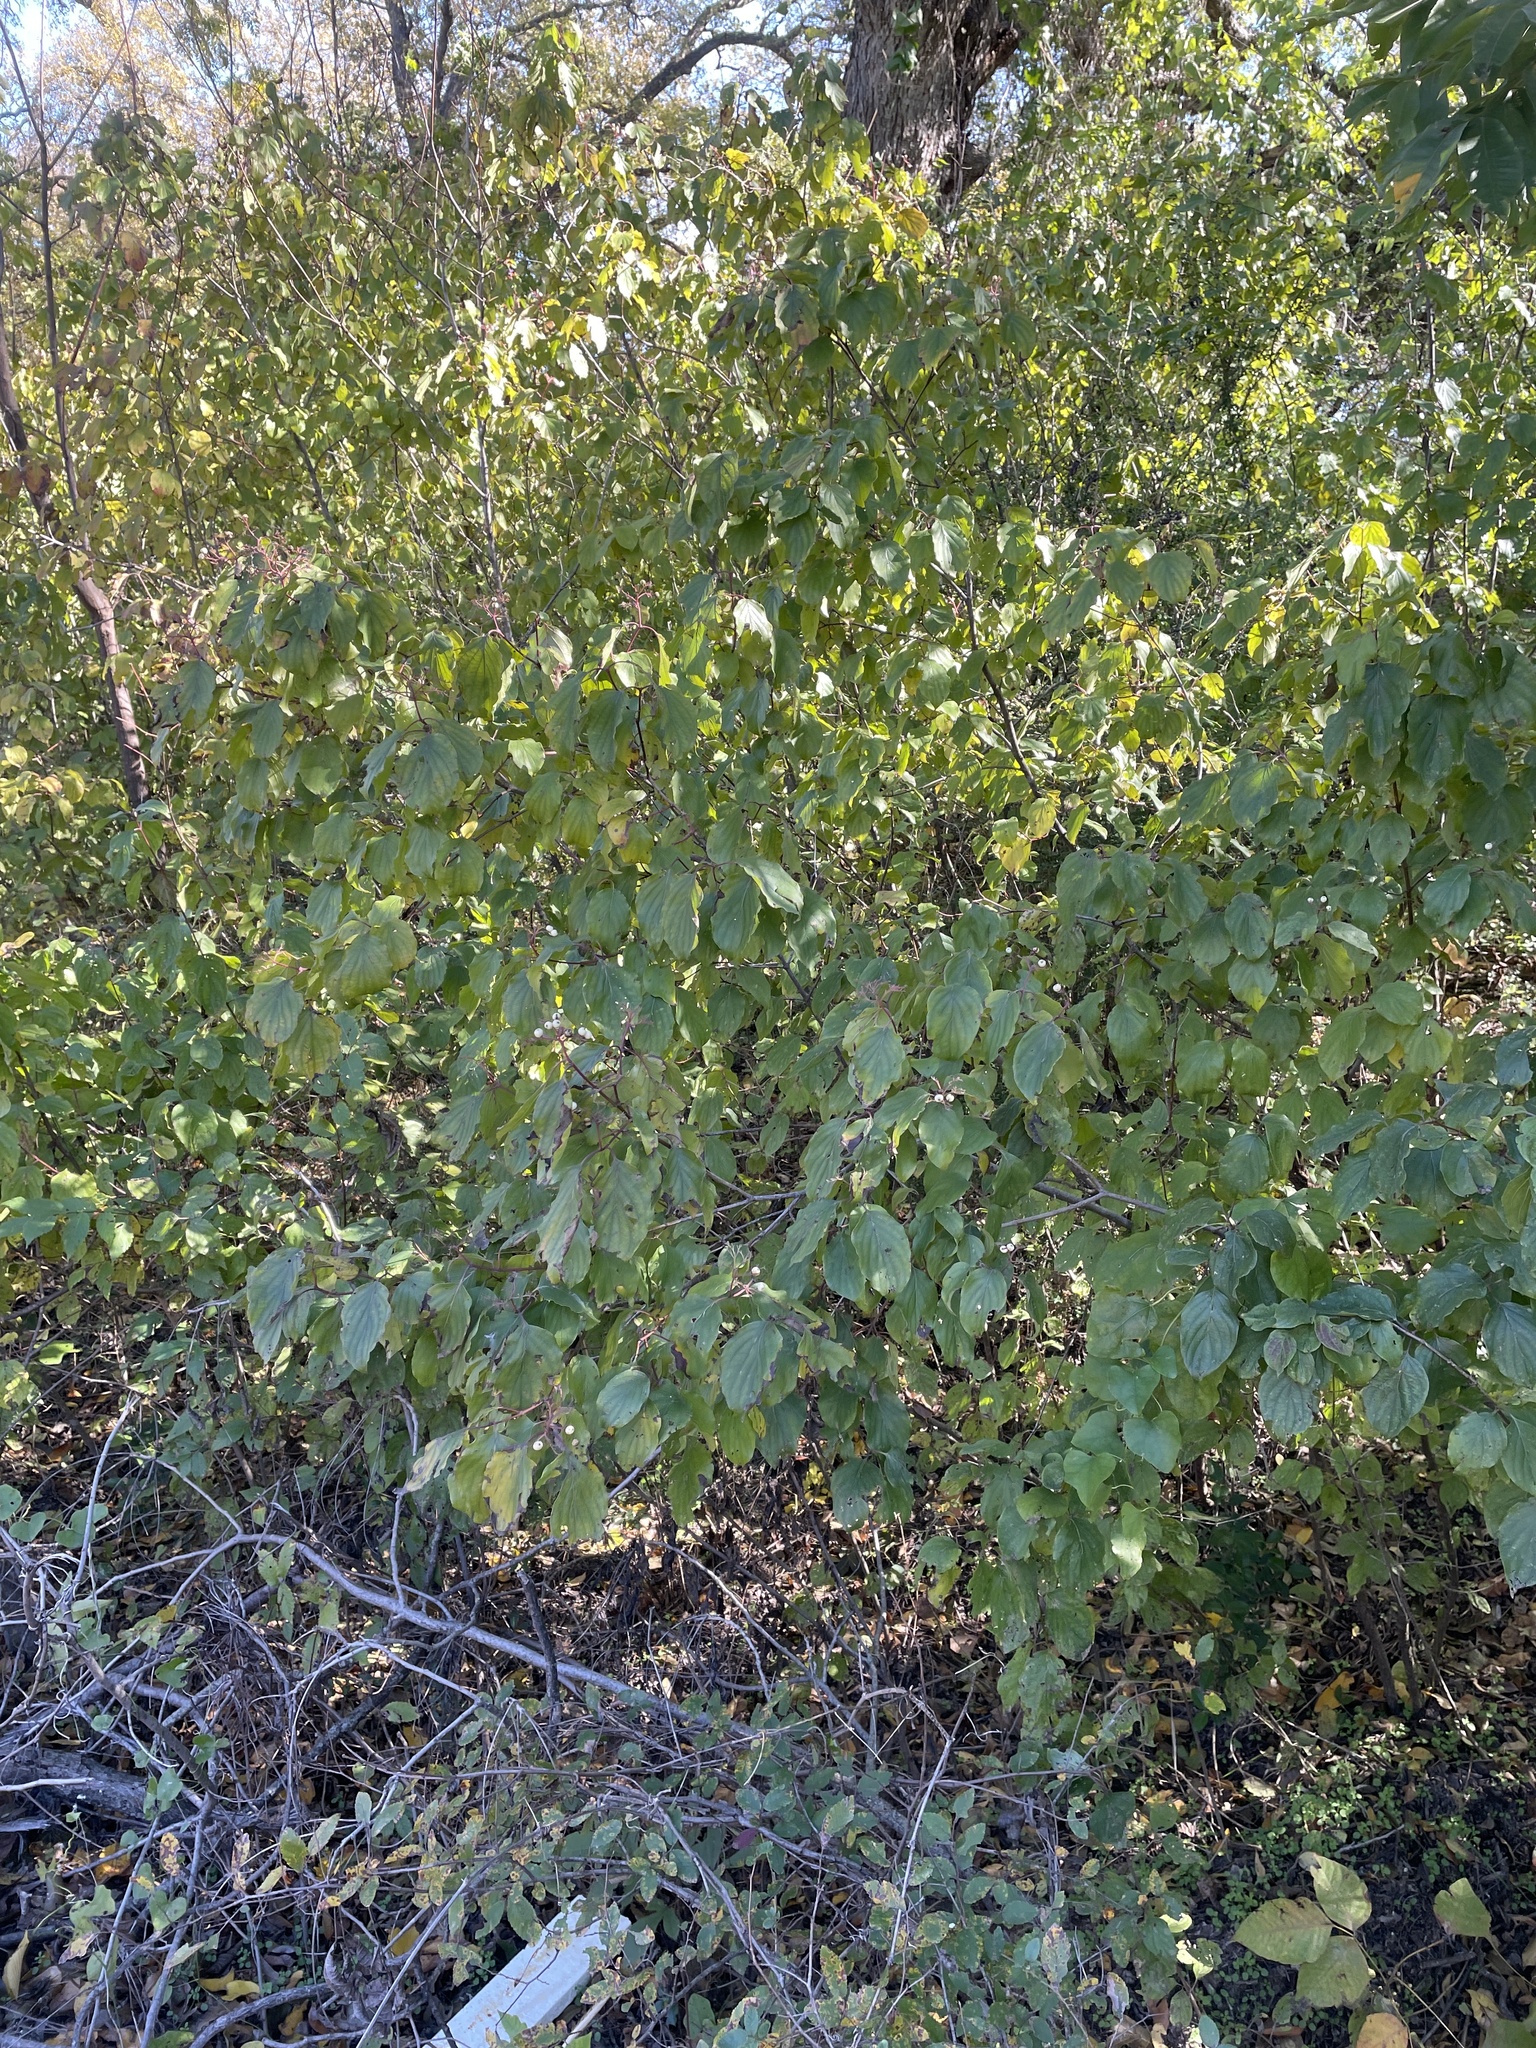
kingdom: Plantae
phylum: Tracheophyta
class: Magnoliopsida
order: Cornales
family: Cornaceae
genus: Cornus
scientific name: Cornus drummondii
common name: Rough-leaf dogwood
